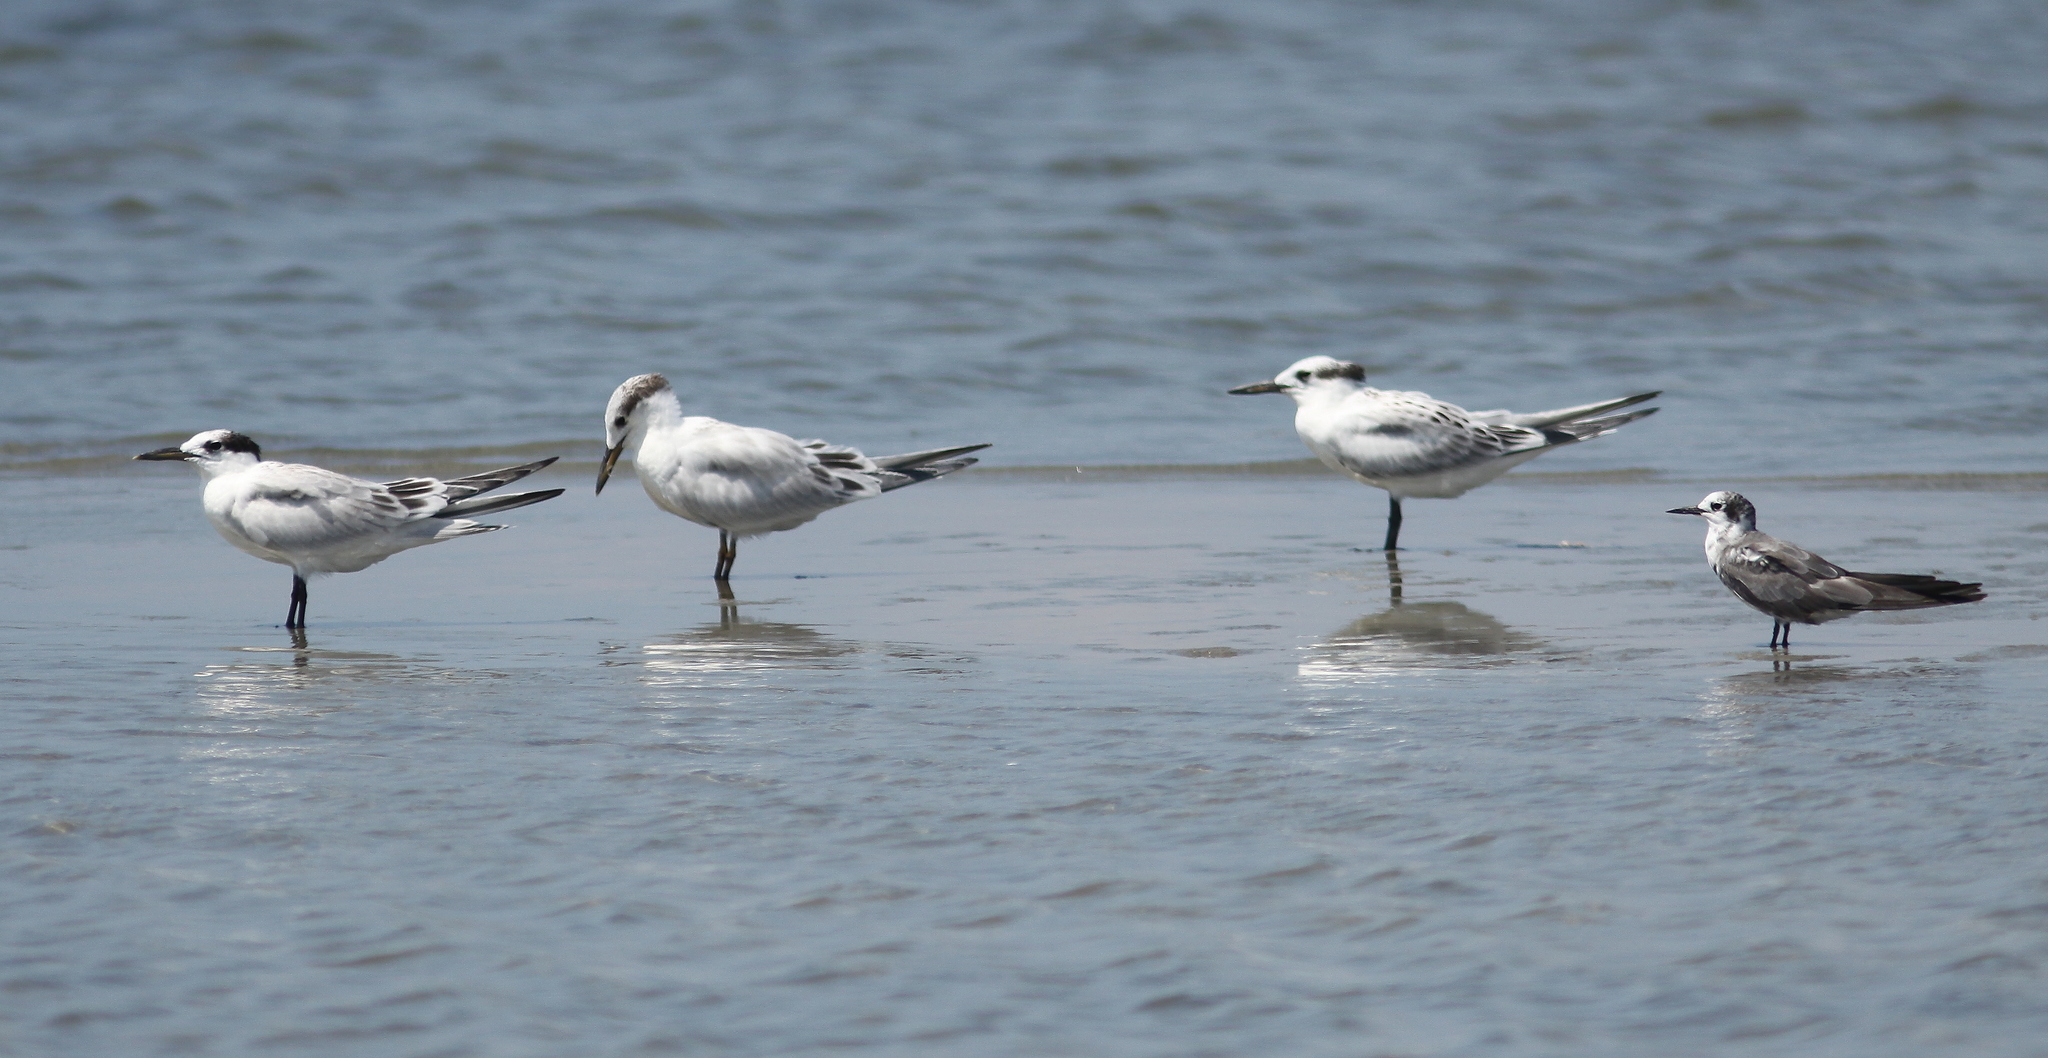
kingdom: Animalia
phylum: Chordata
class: Aves
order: Charadriiformes
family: Laridae
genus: Chlidonias
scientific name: Chlidonias niger
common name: Black tern
